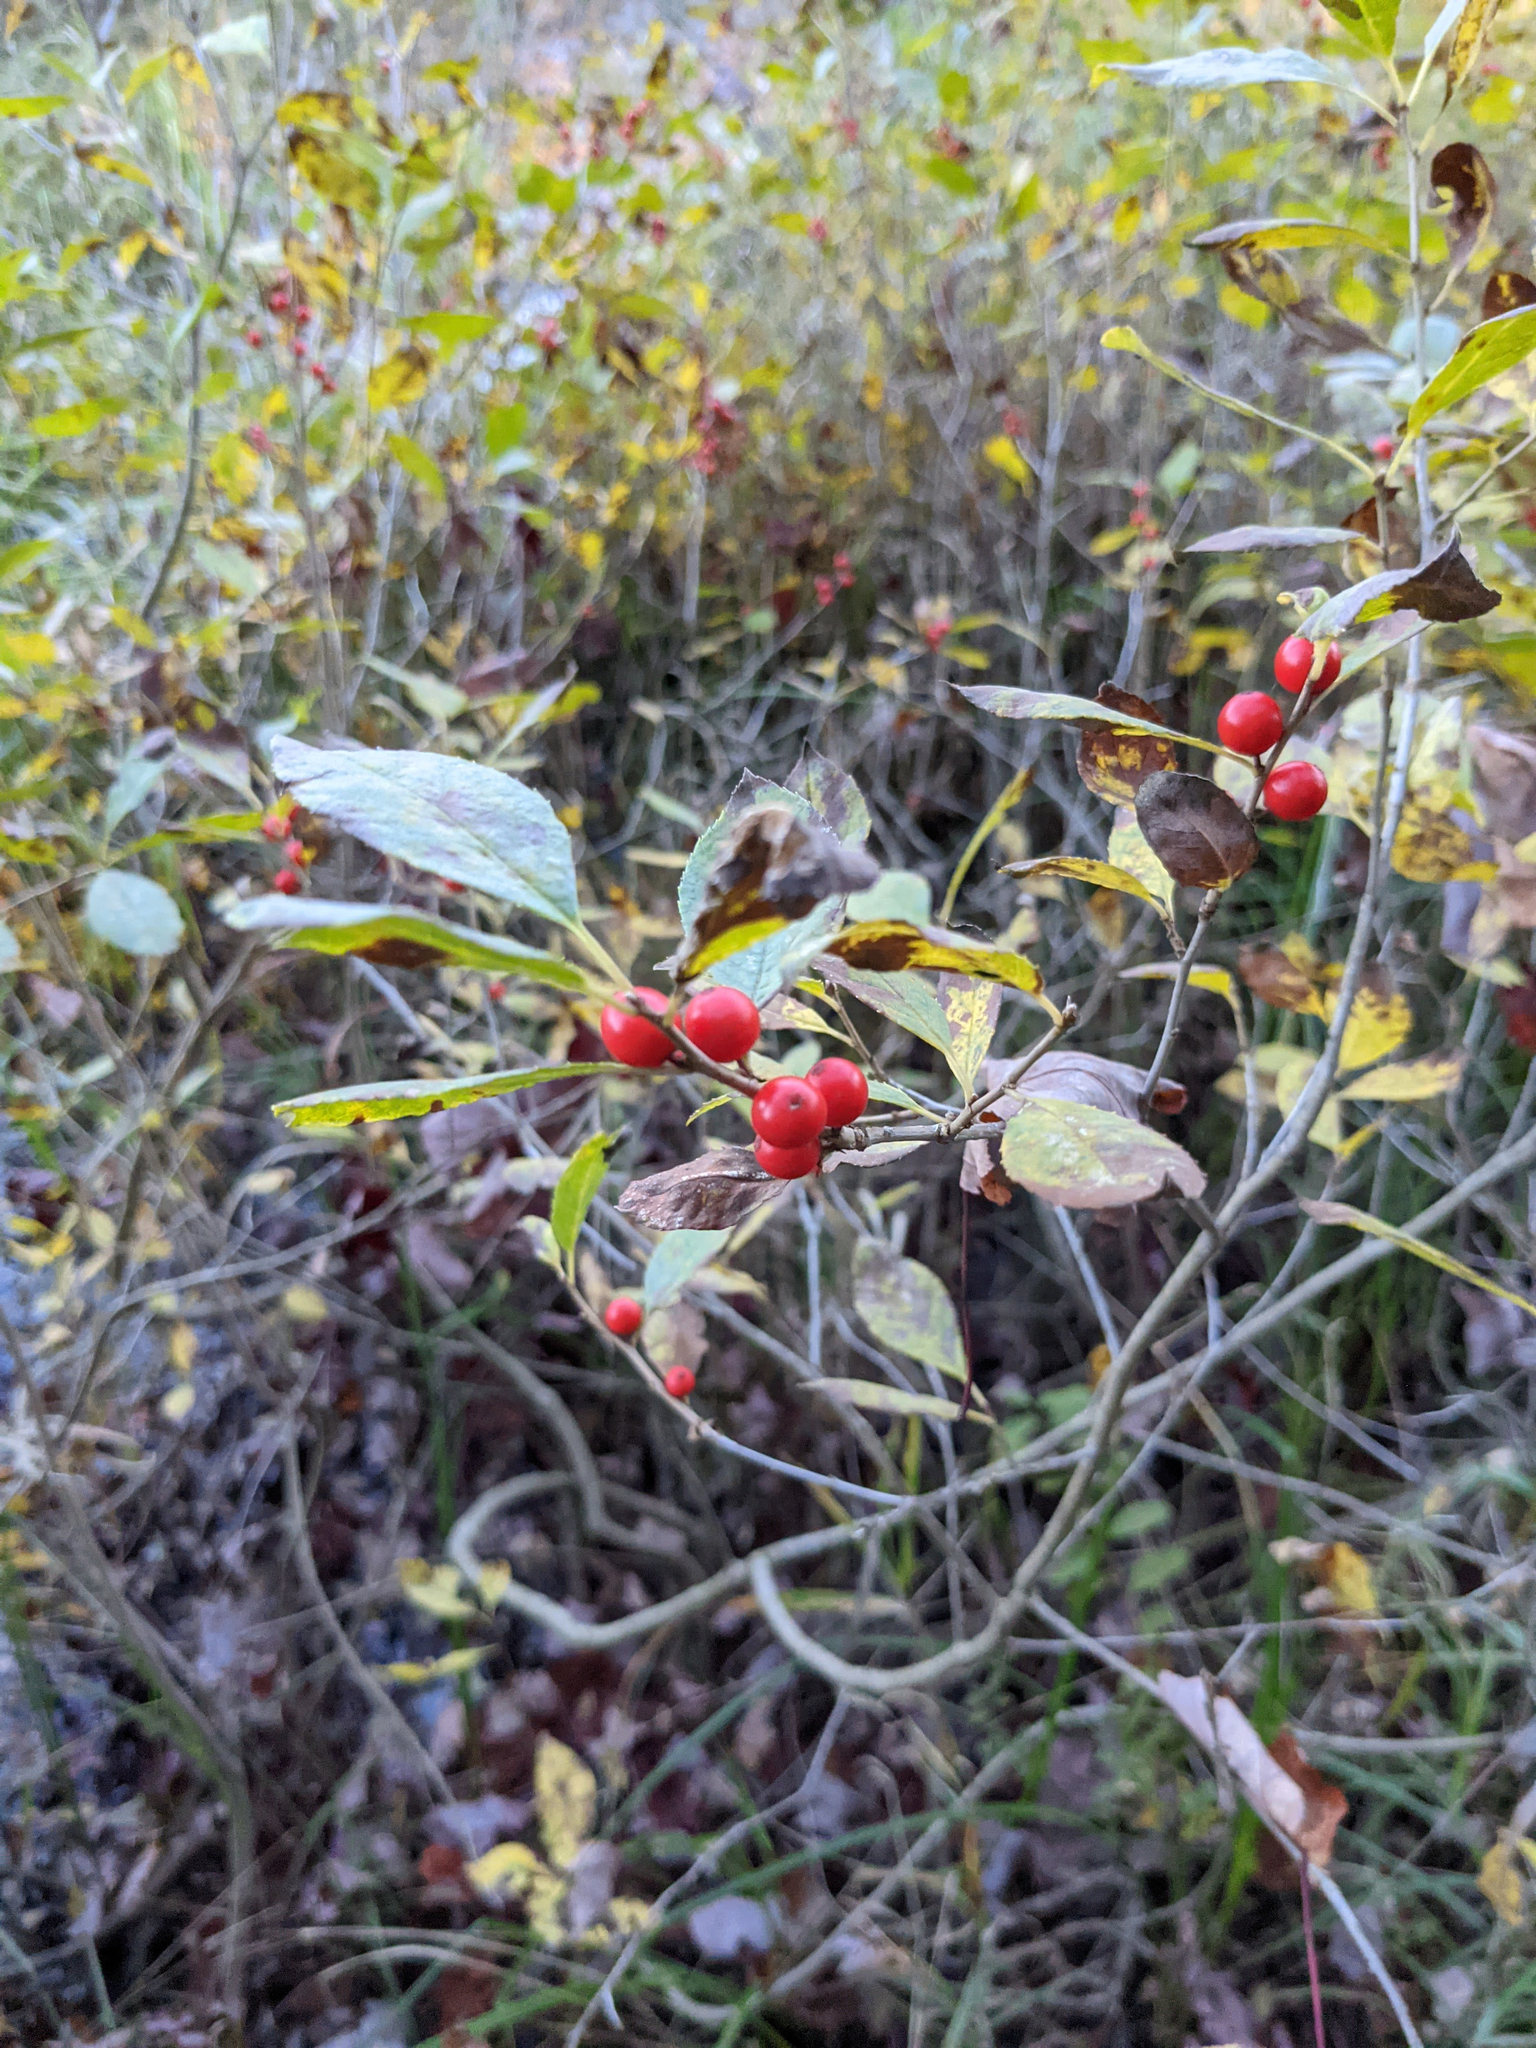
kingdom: Plantae
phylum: Tracheophyta
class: Magnoliopsida
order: Aquifoliales
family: Aquifoliaceae
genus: Ilex
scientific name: Ilex verticillata
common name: Virginia winterberry
